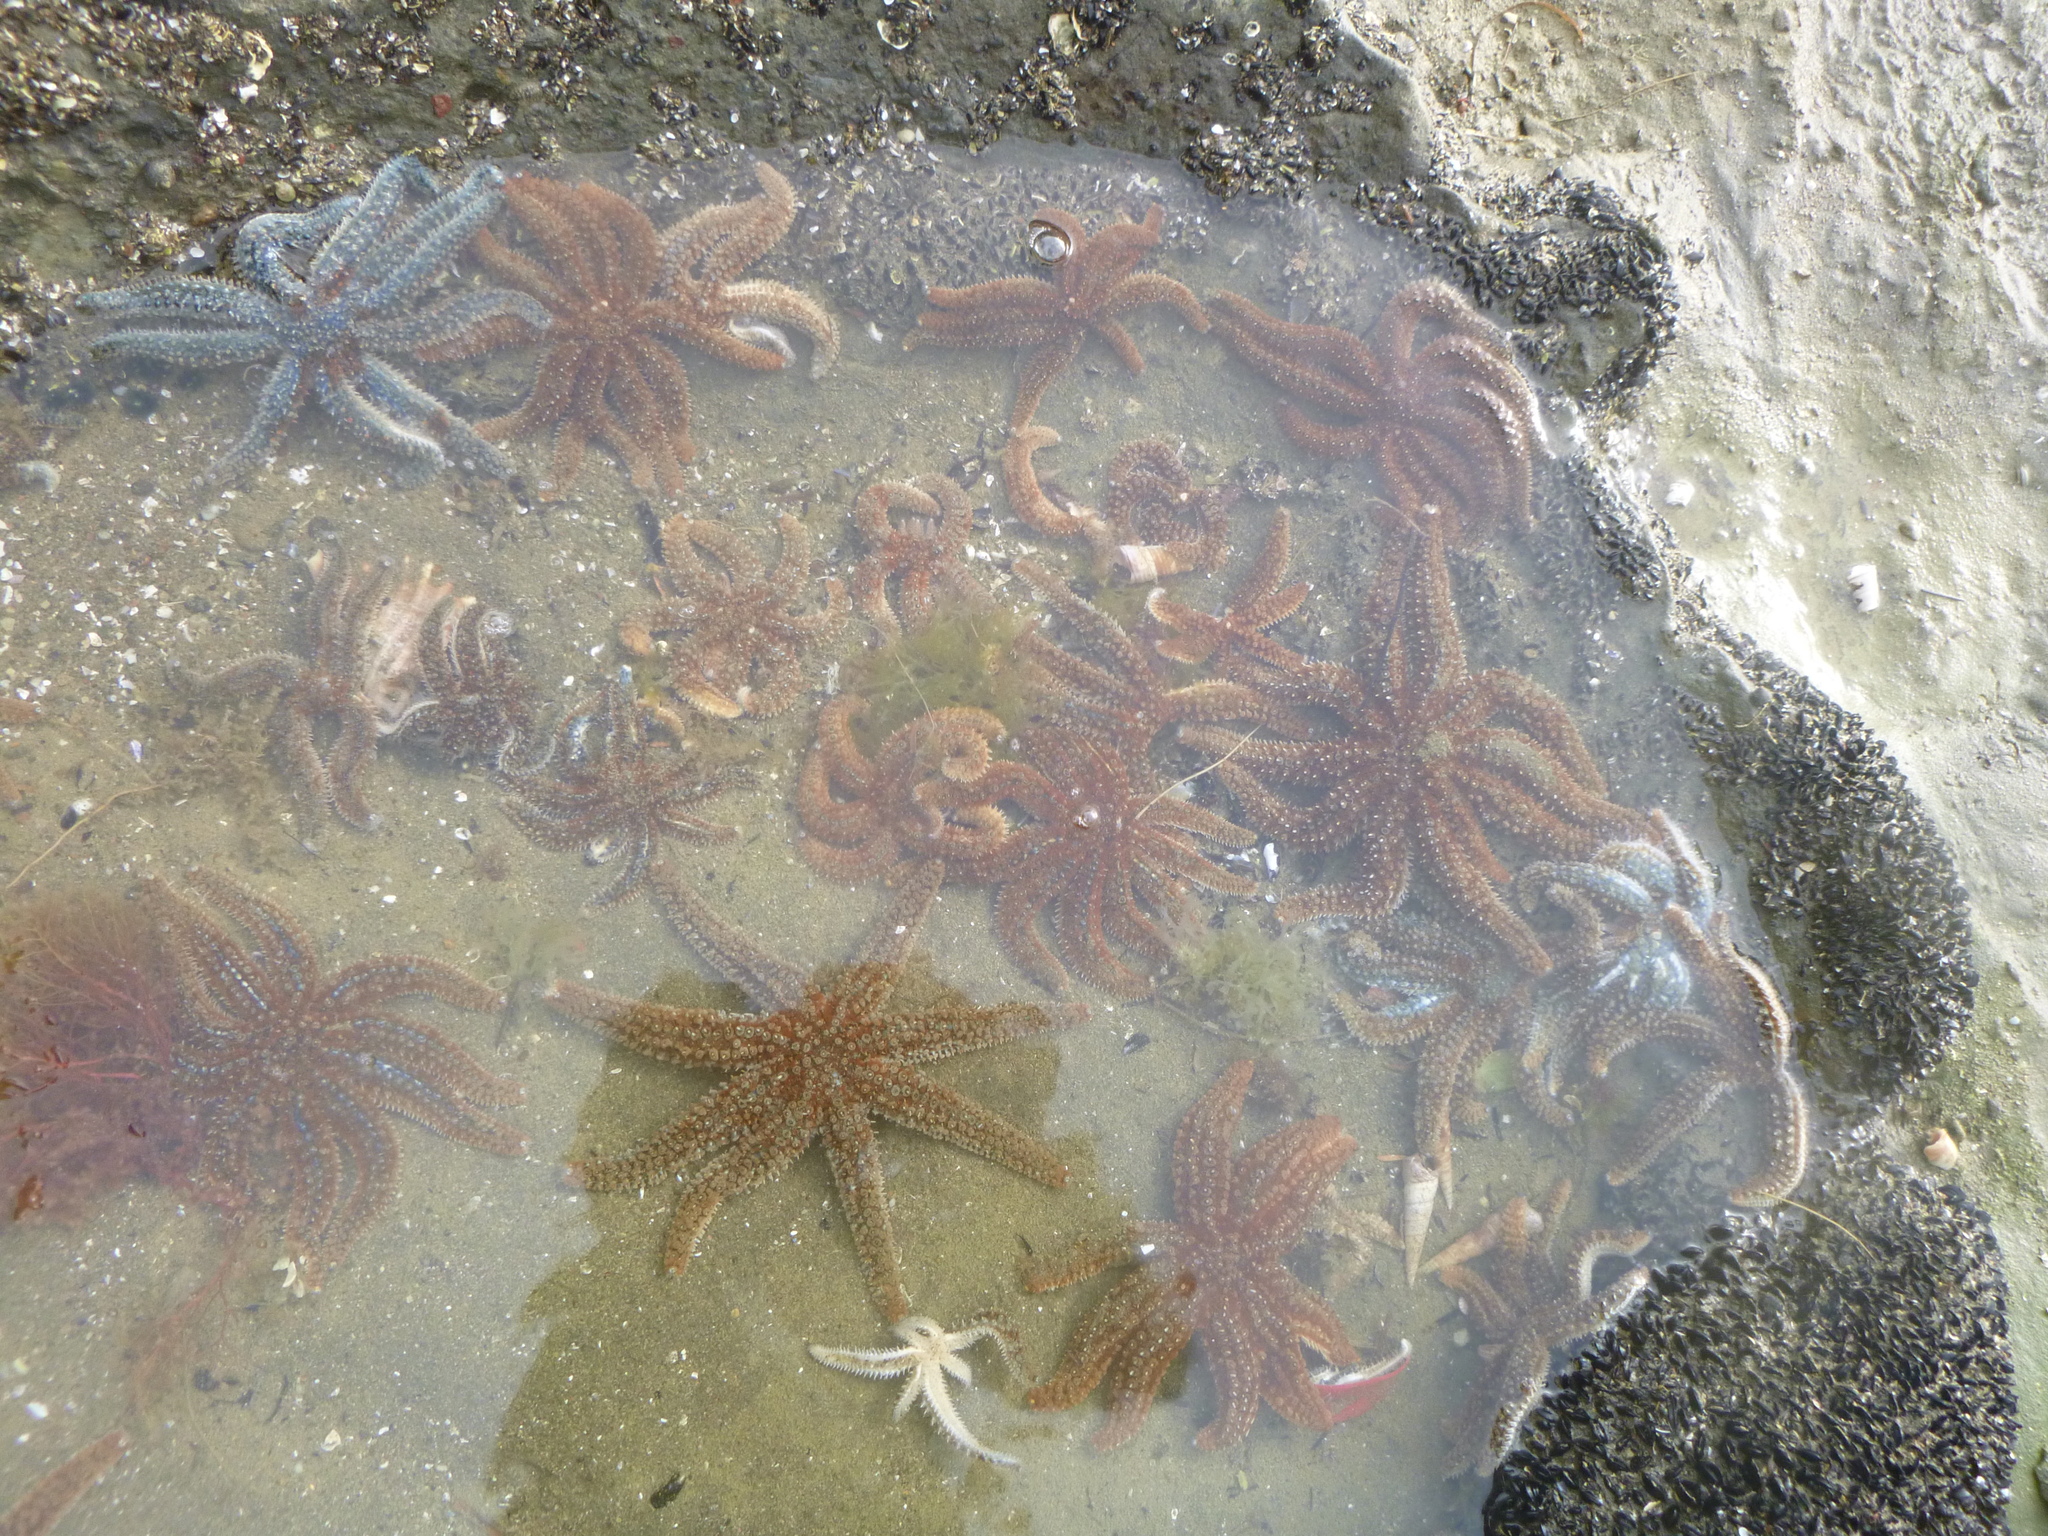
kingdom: Animalia
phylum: Echinodermata
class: Asteroidea
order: Forcipulatida
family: Asteriidae
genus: Coscinasterias
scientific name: Coscinasterias muricata
